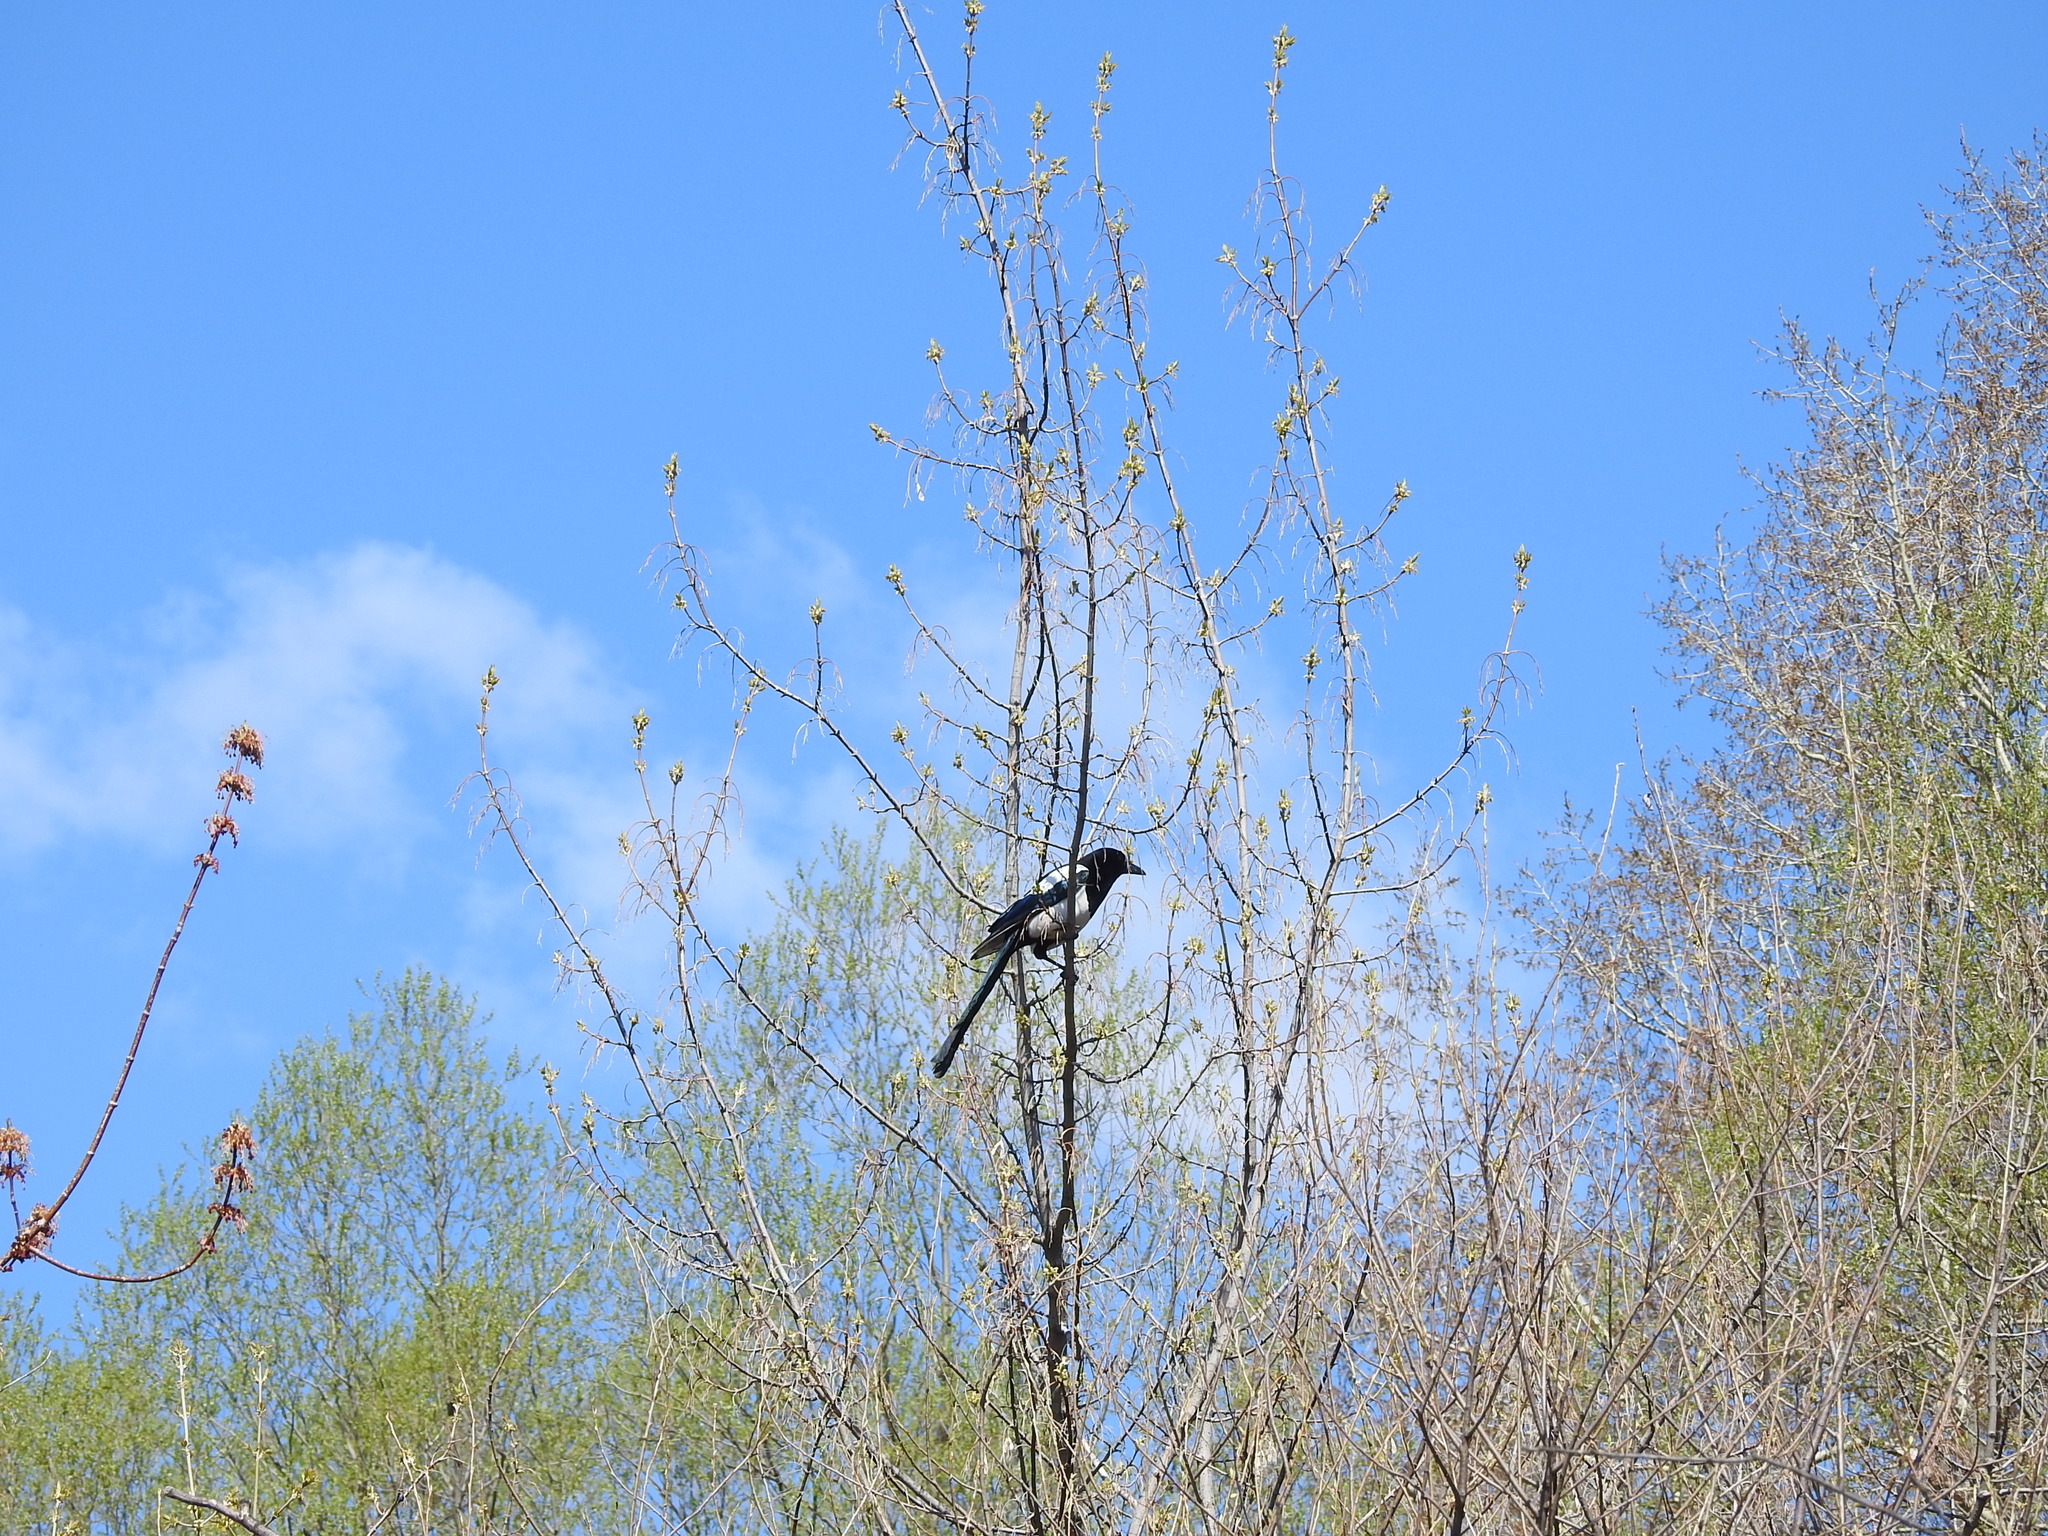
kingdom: Animalia
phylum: Chordata
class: Aves
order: Passeriformes
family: Corvidae
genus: Pica
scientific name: Pica pica
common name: Eurasian magpie
